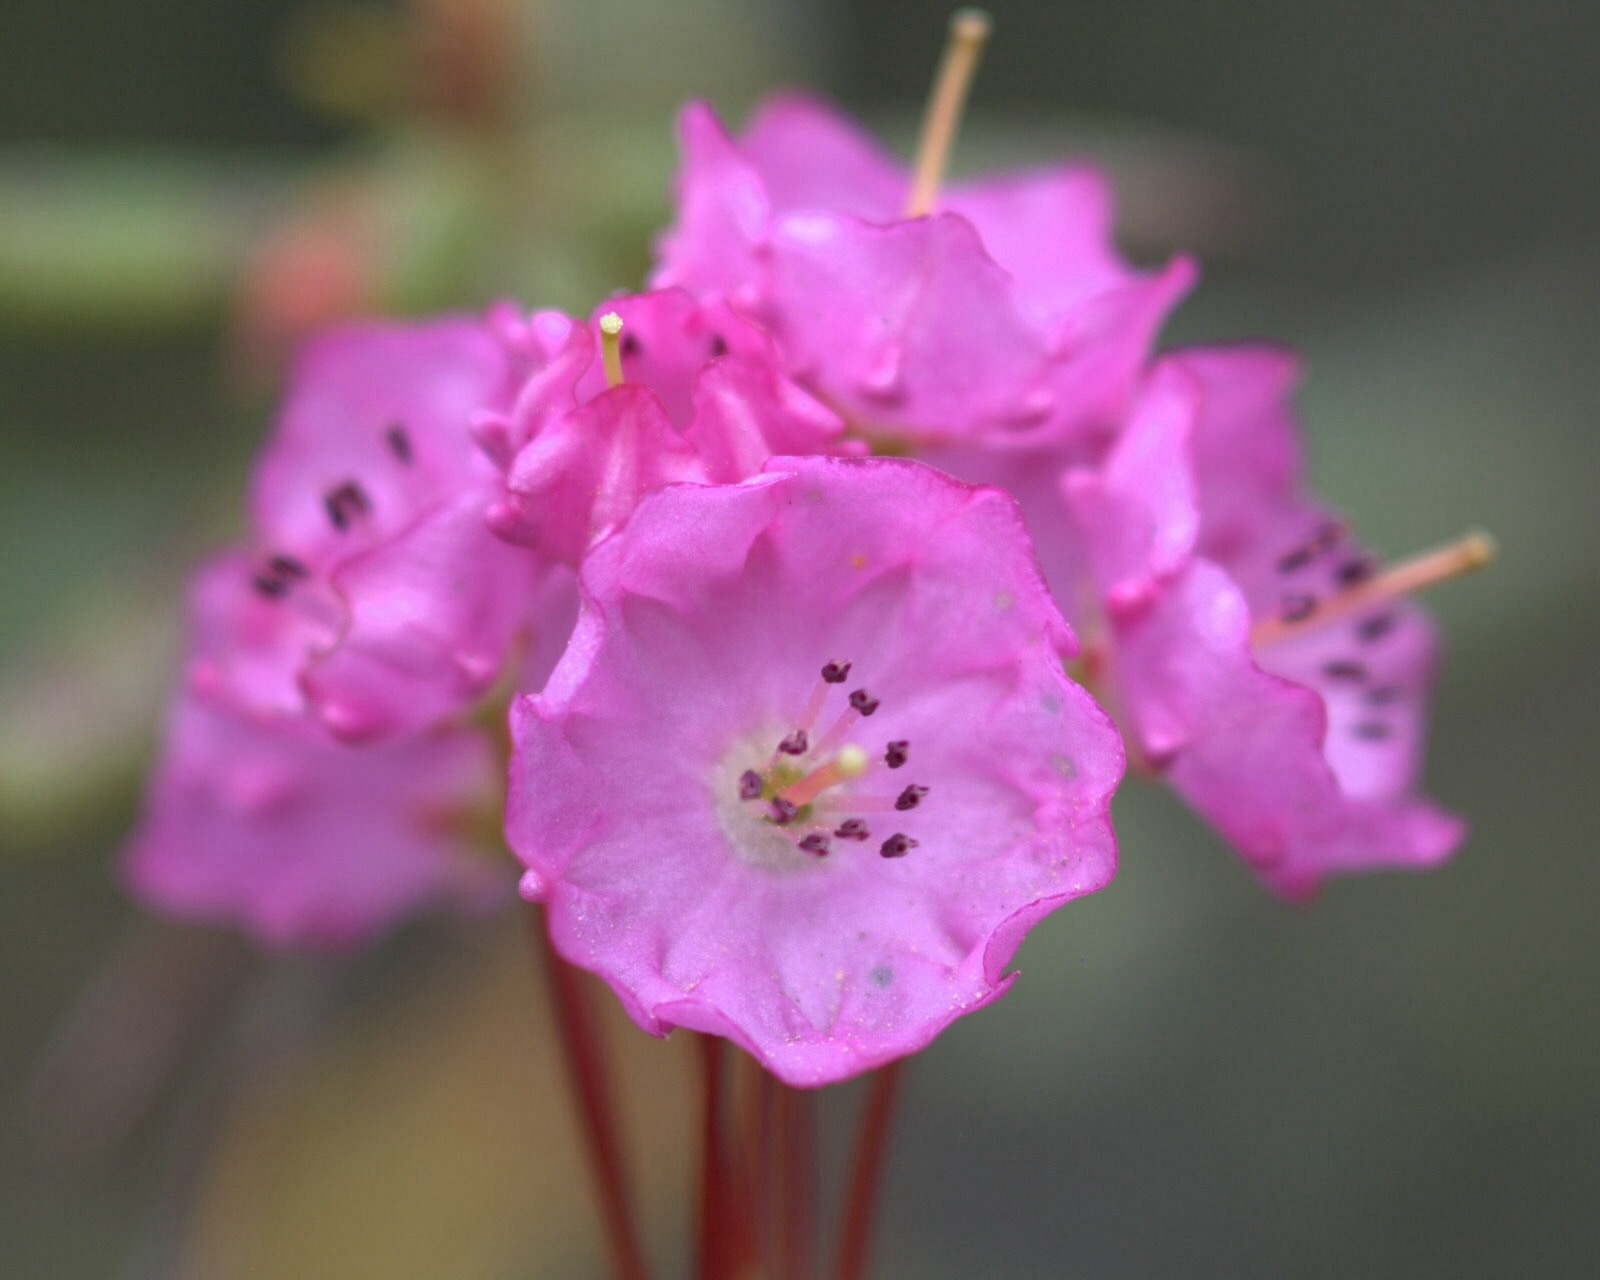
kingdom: Plantae
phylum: Tracheophyta
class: Magnoliopsida
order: Ericales
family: Ericaceae
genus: Kalmia
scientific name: Kalmia polifolia
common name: Bog-laurel
